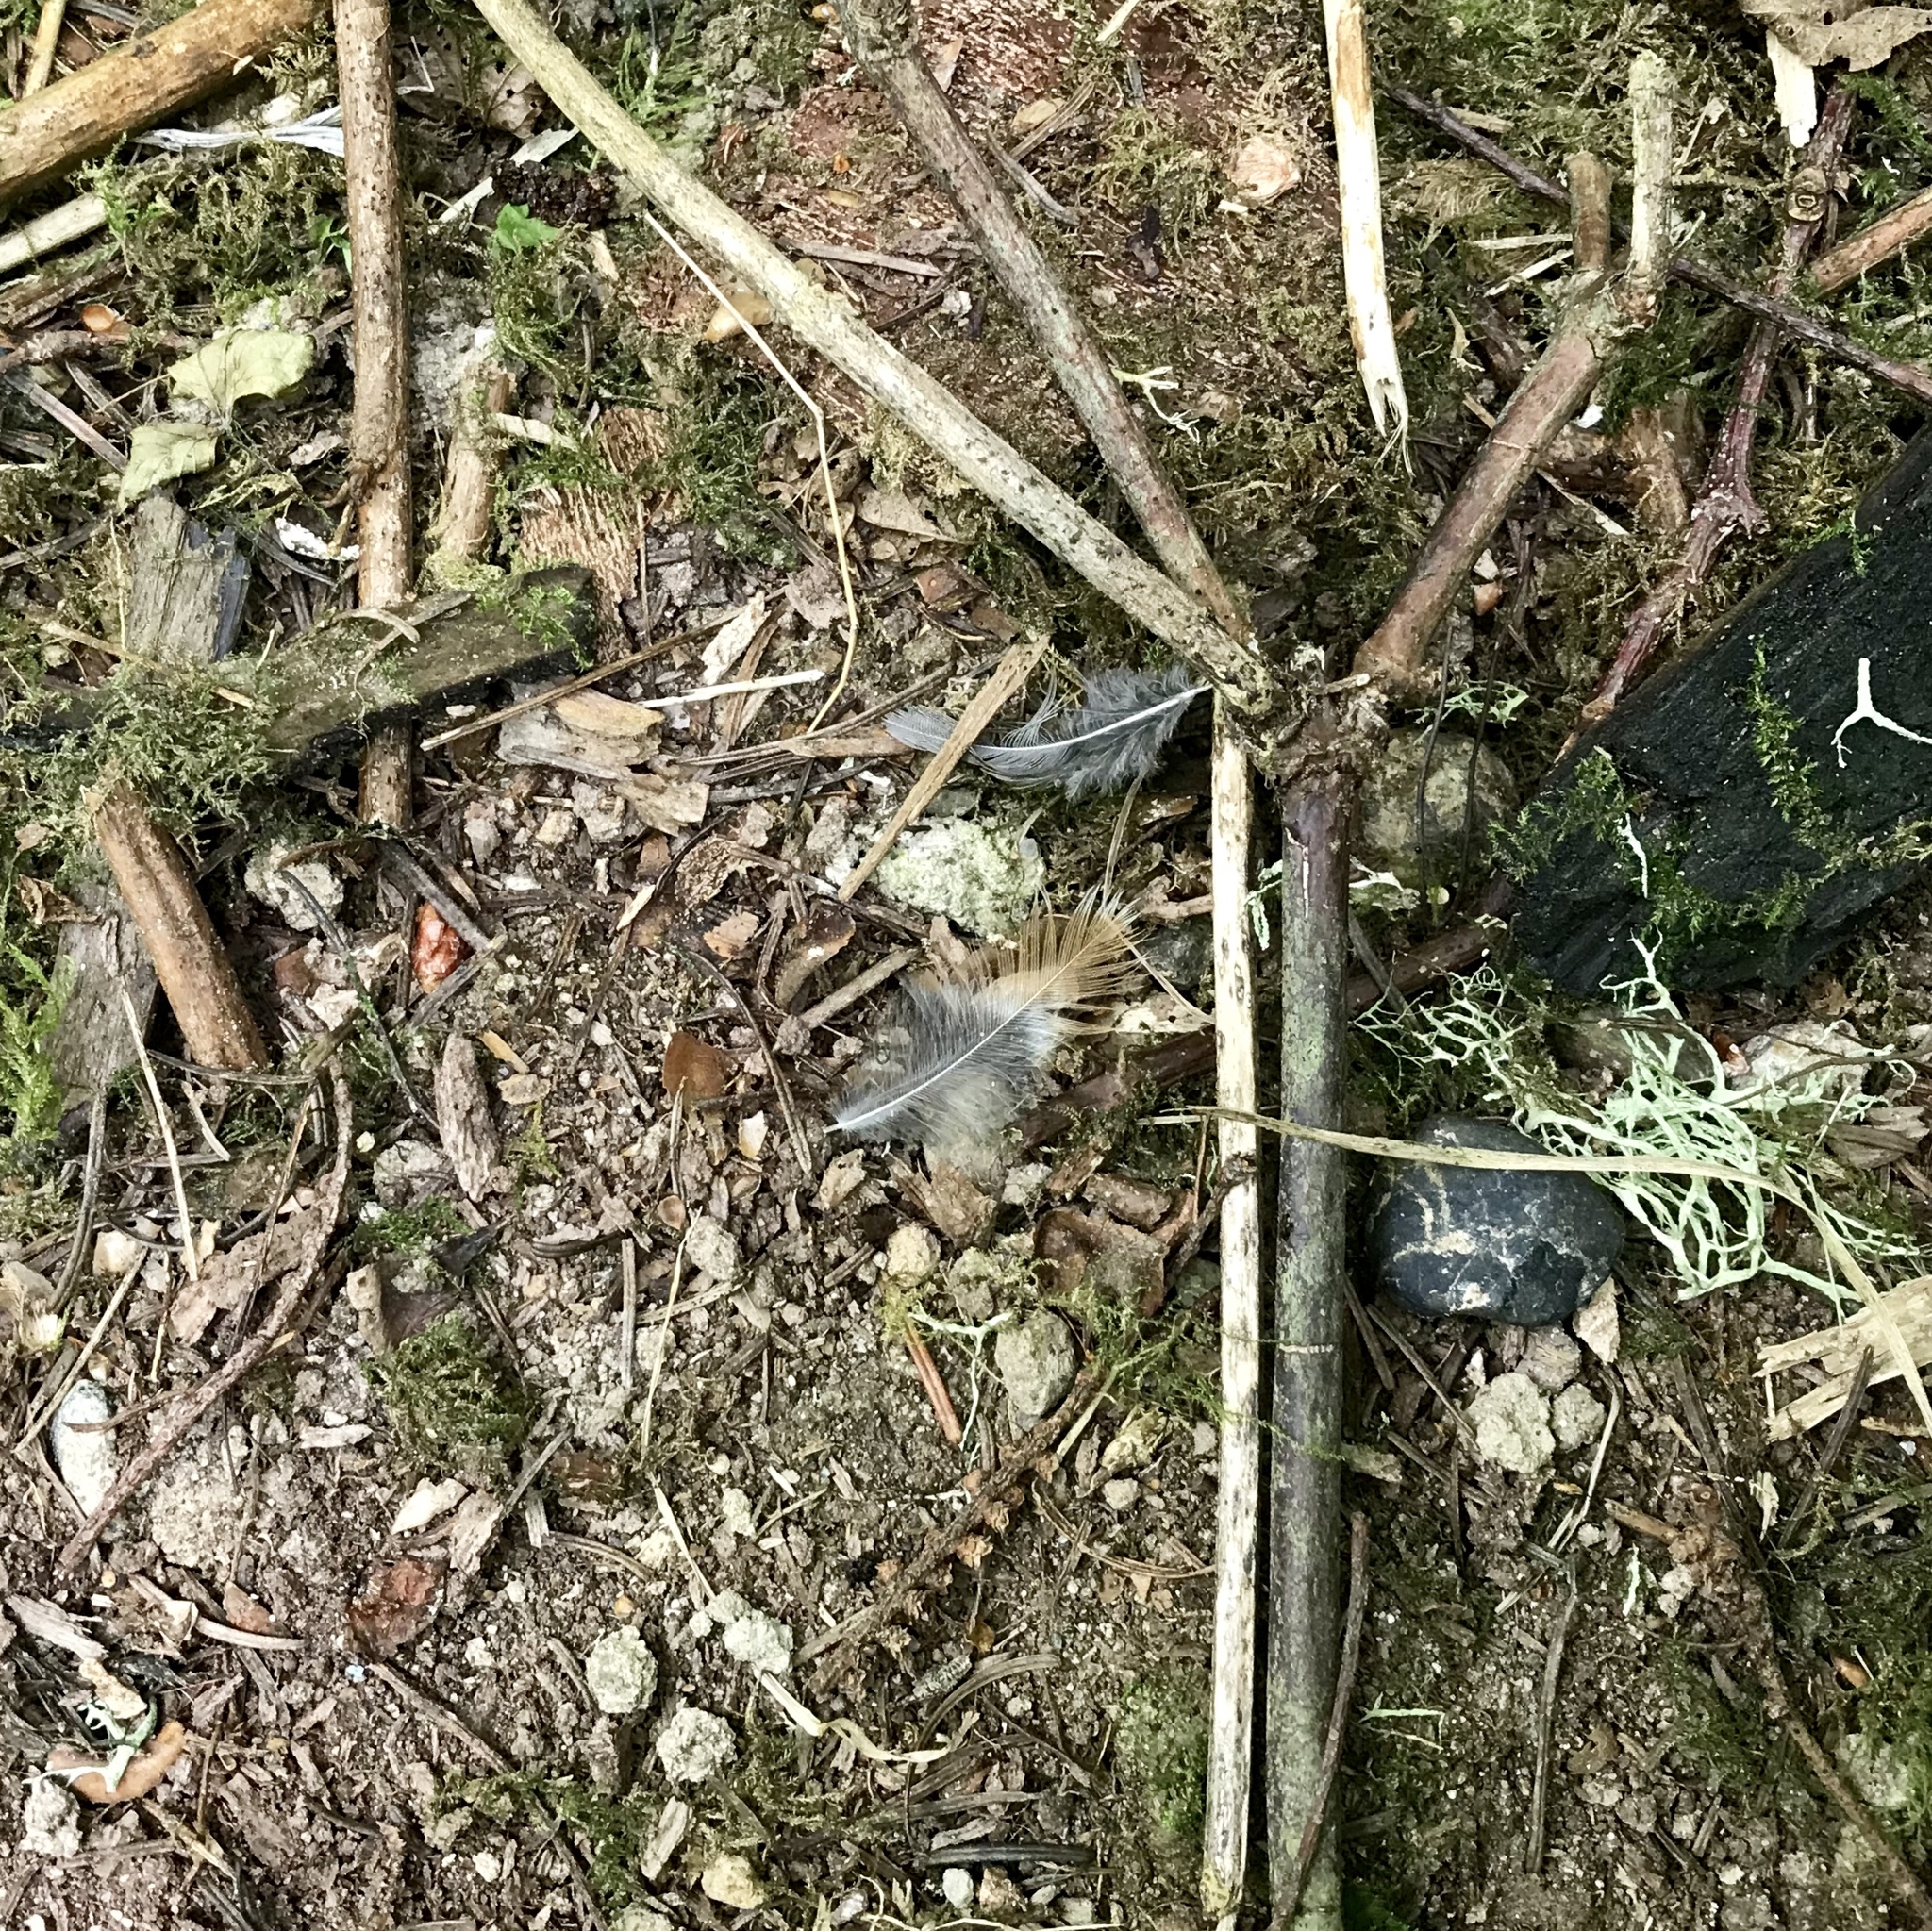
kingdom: Animalia
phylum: Chordata
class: Aves
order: Passeriformes
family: Turdidae
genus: Turdus
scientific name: Turdus migratorius
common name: American robin
